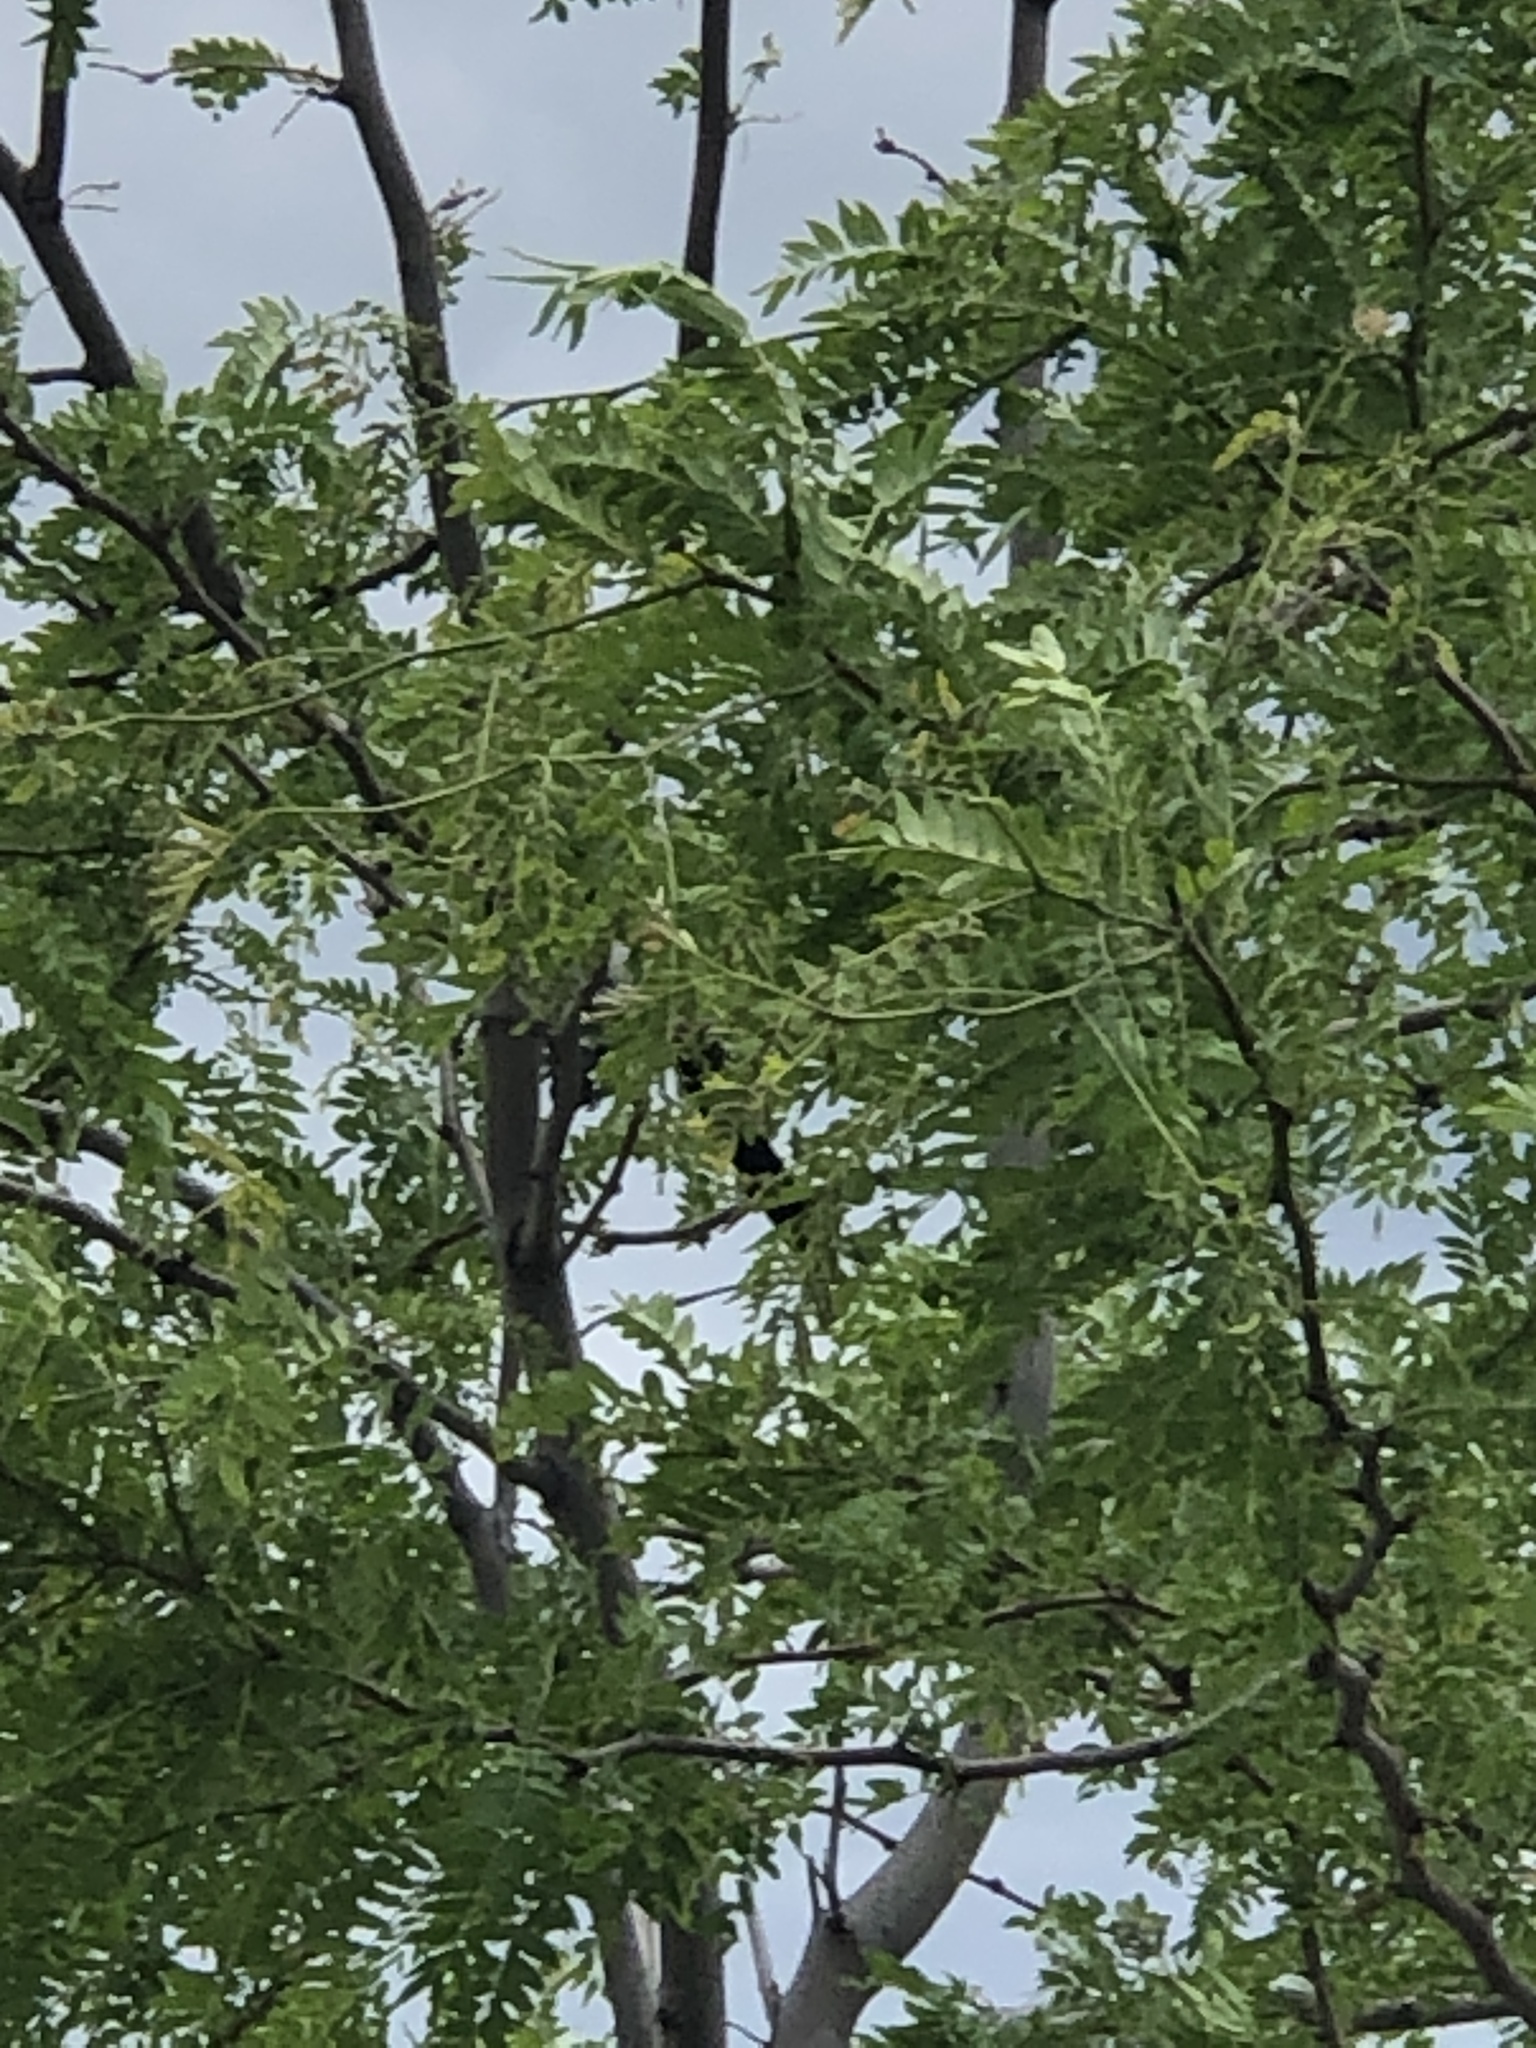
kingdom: Animalia
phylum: Chordata
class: Aves
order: Passeriformes
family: Corvidae
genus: Pica
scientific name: Pica hudsonia
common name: Black-billed magpie
